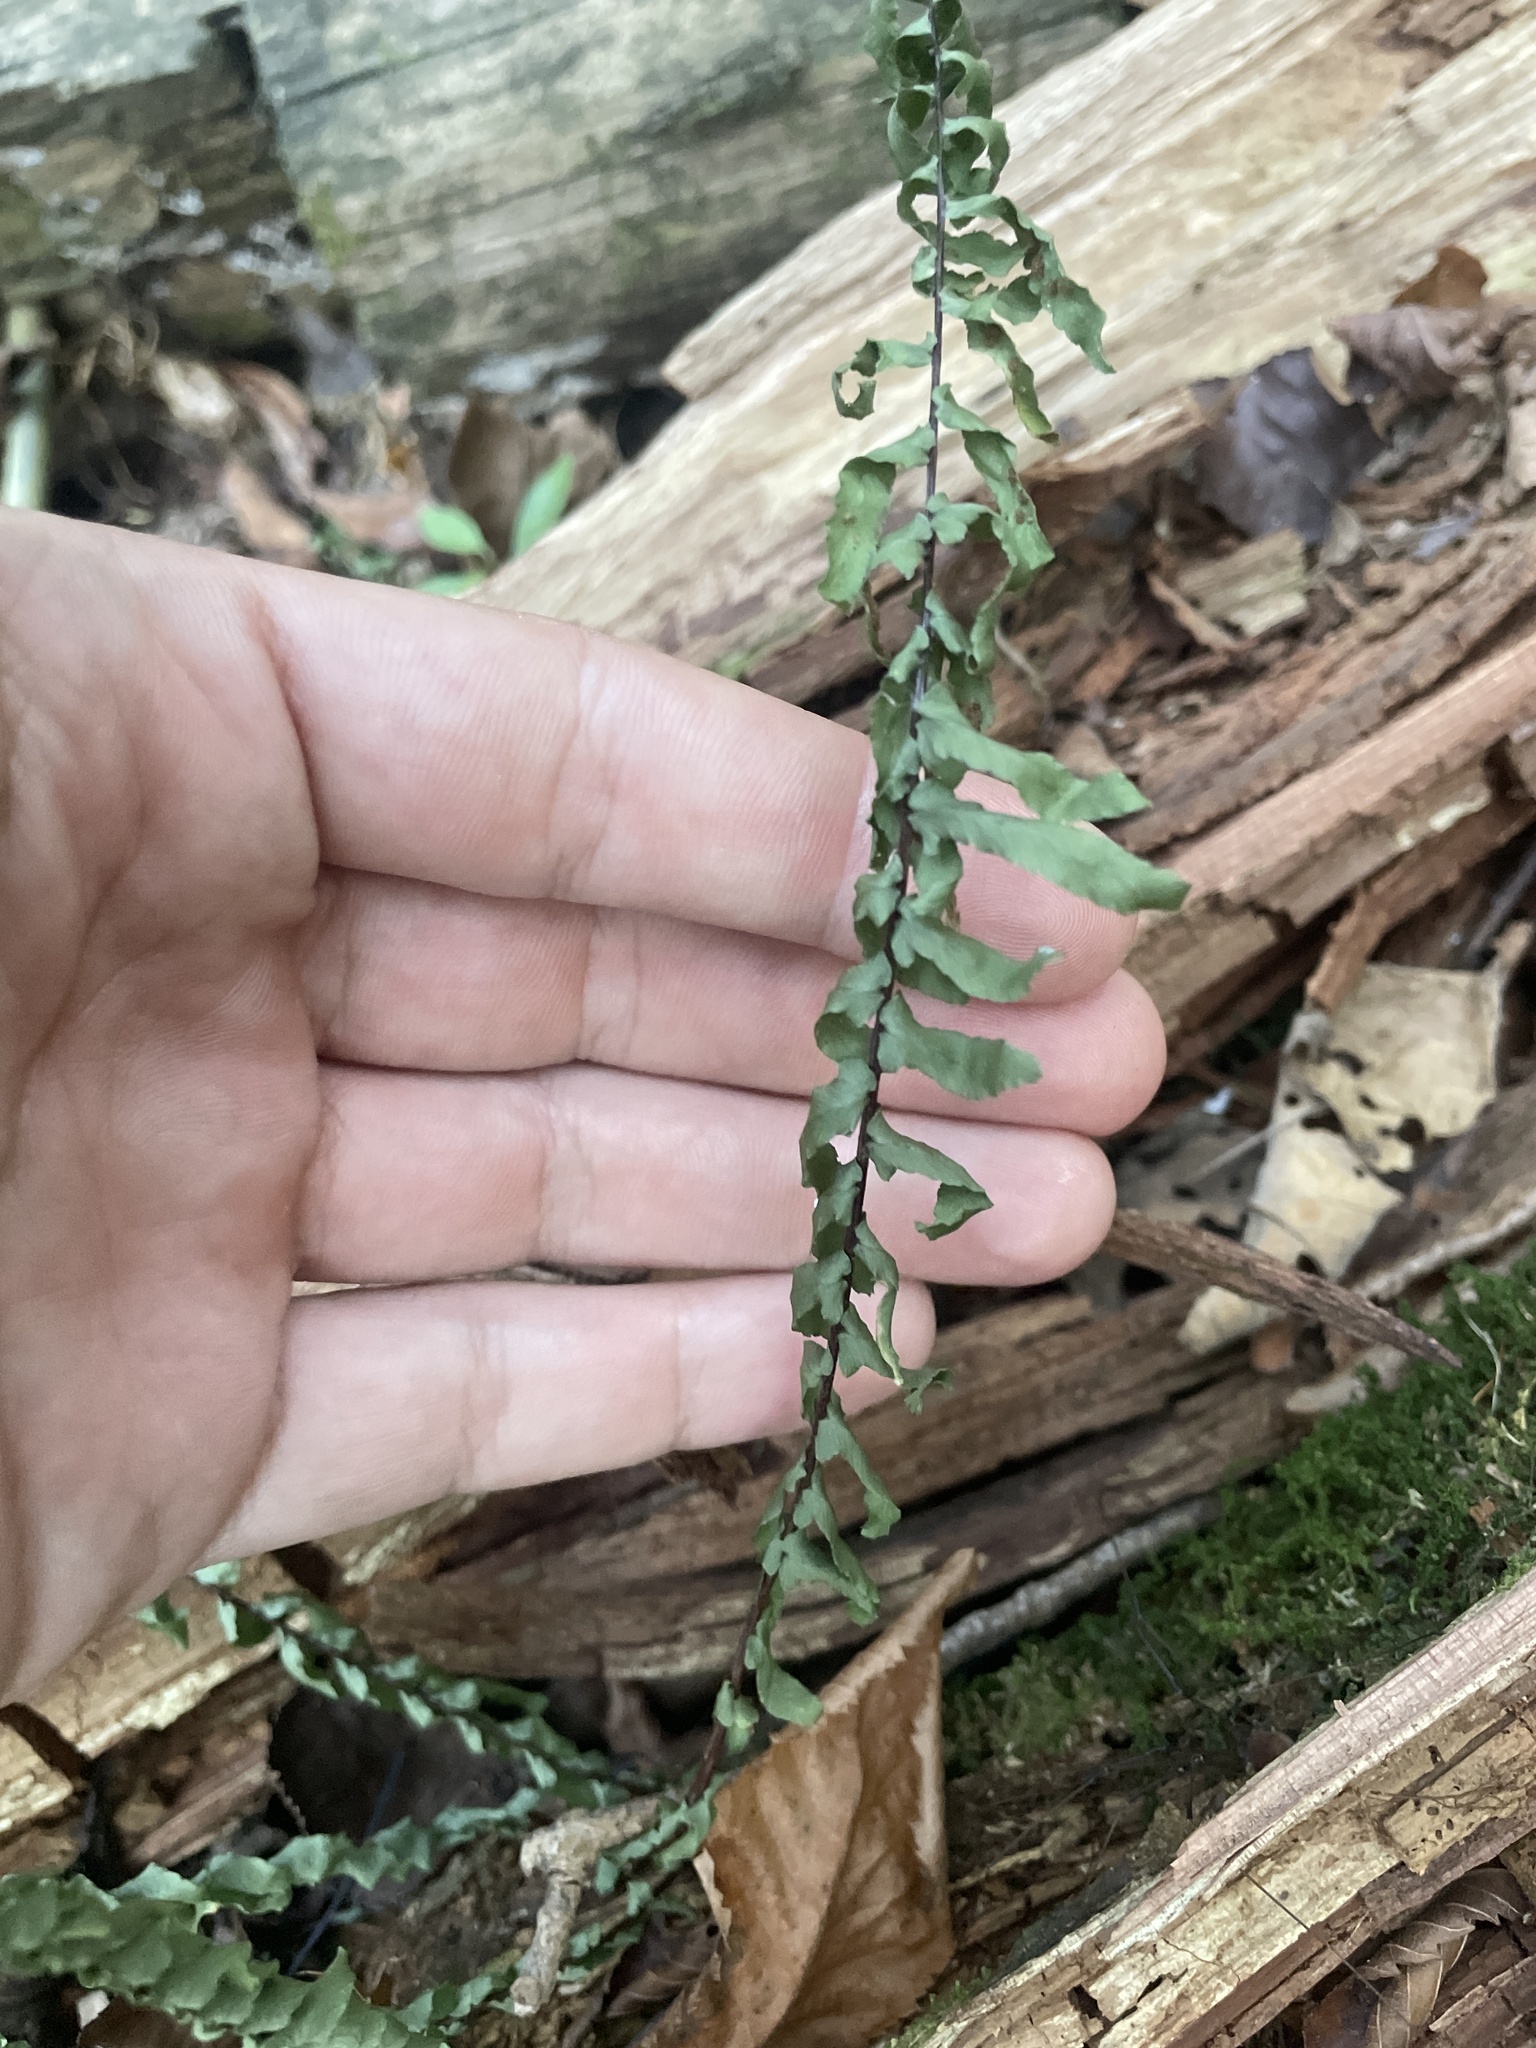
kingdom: Plantae
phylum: Tracheophyta
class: Polypodiopsida
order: Polypodiales
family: Aspleniaceae
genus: Asplenium
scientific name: Asplenium platyneuron
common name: Ebony spleenwort
